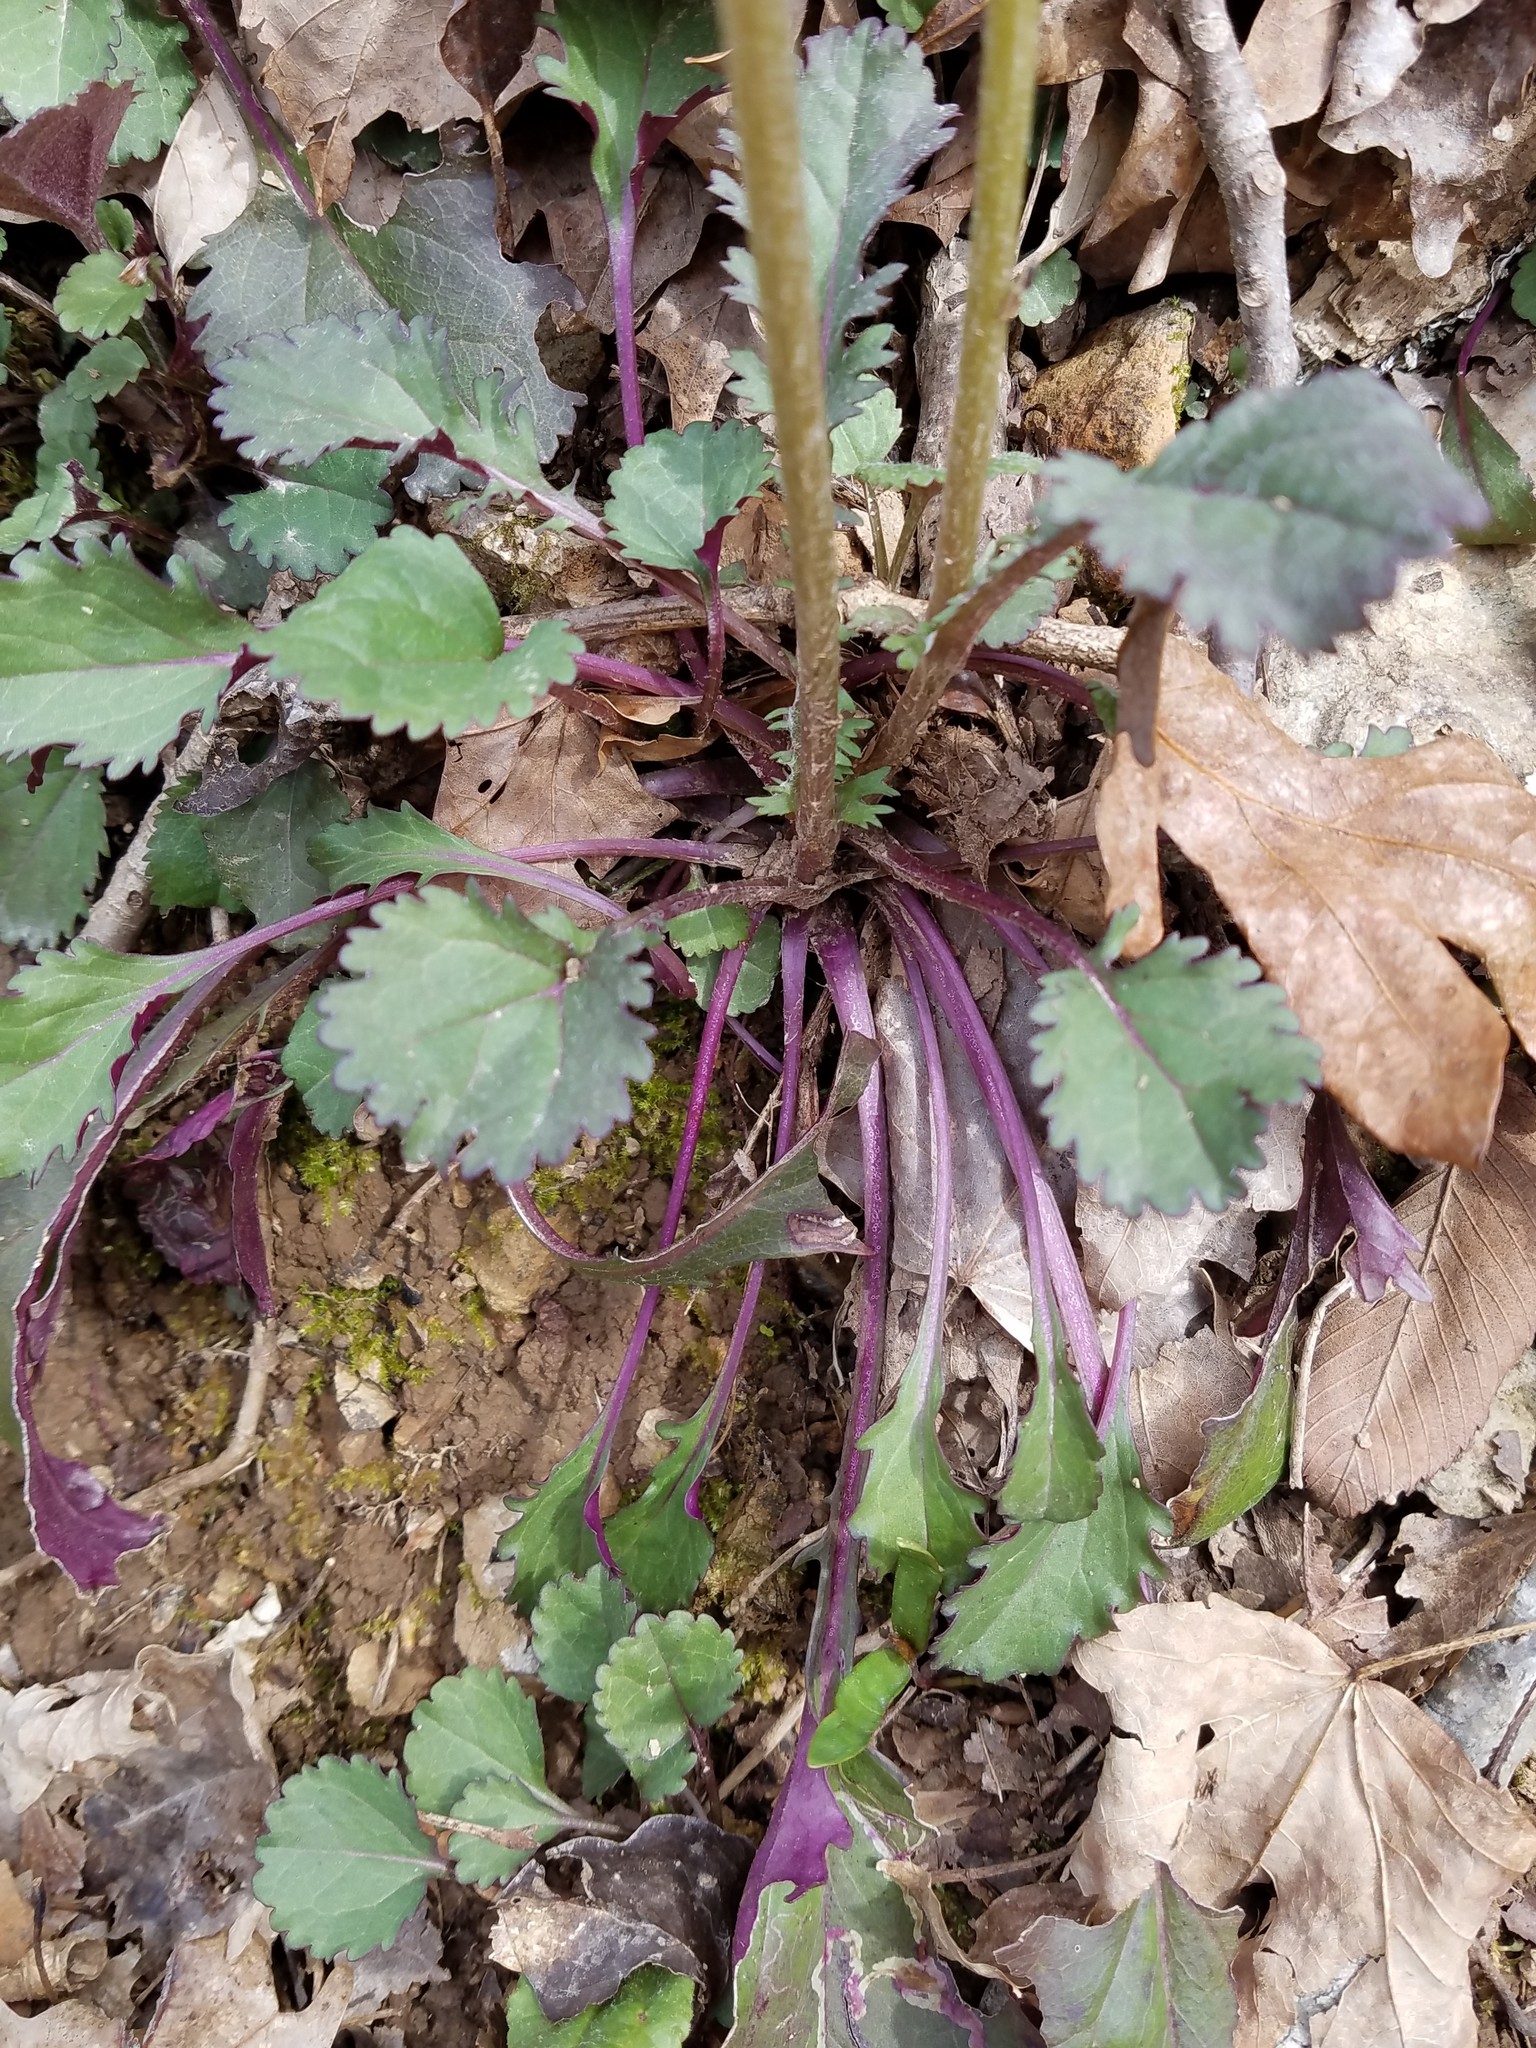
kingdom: Plantae
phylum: Tracheophyta
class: Magnoliopsida
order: Asterales
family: Asteraceae
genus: Packera
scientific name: Packera obovata
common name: Round-leaf ragwort
